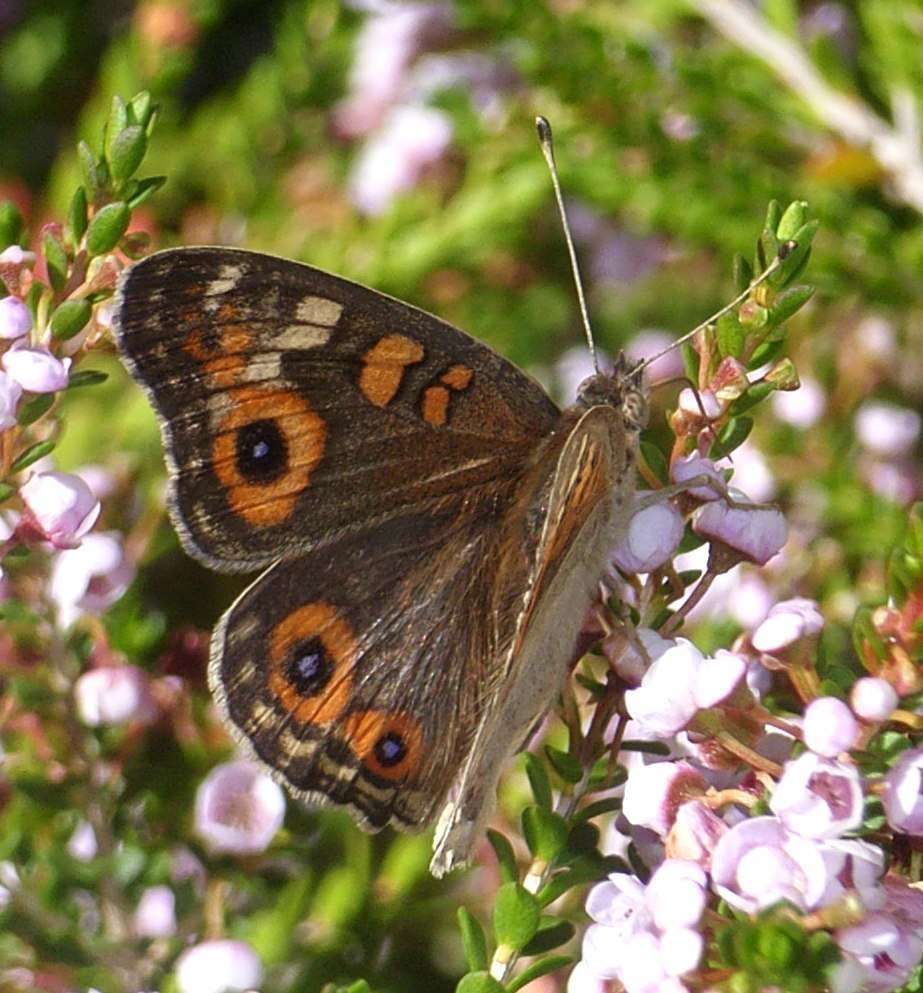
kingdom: Animalia
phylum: Arthropoda
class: Insecta
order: Lepidoptera
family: Nymphalidae
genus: Junonia
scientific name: Junonia villida
